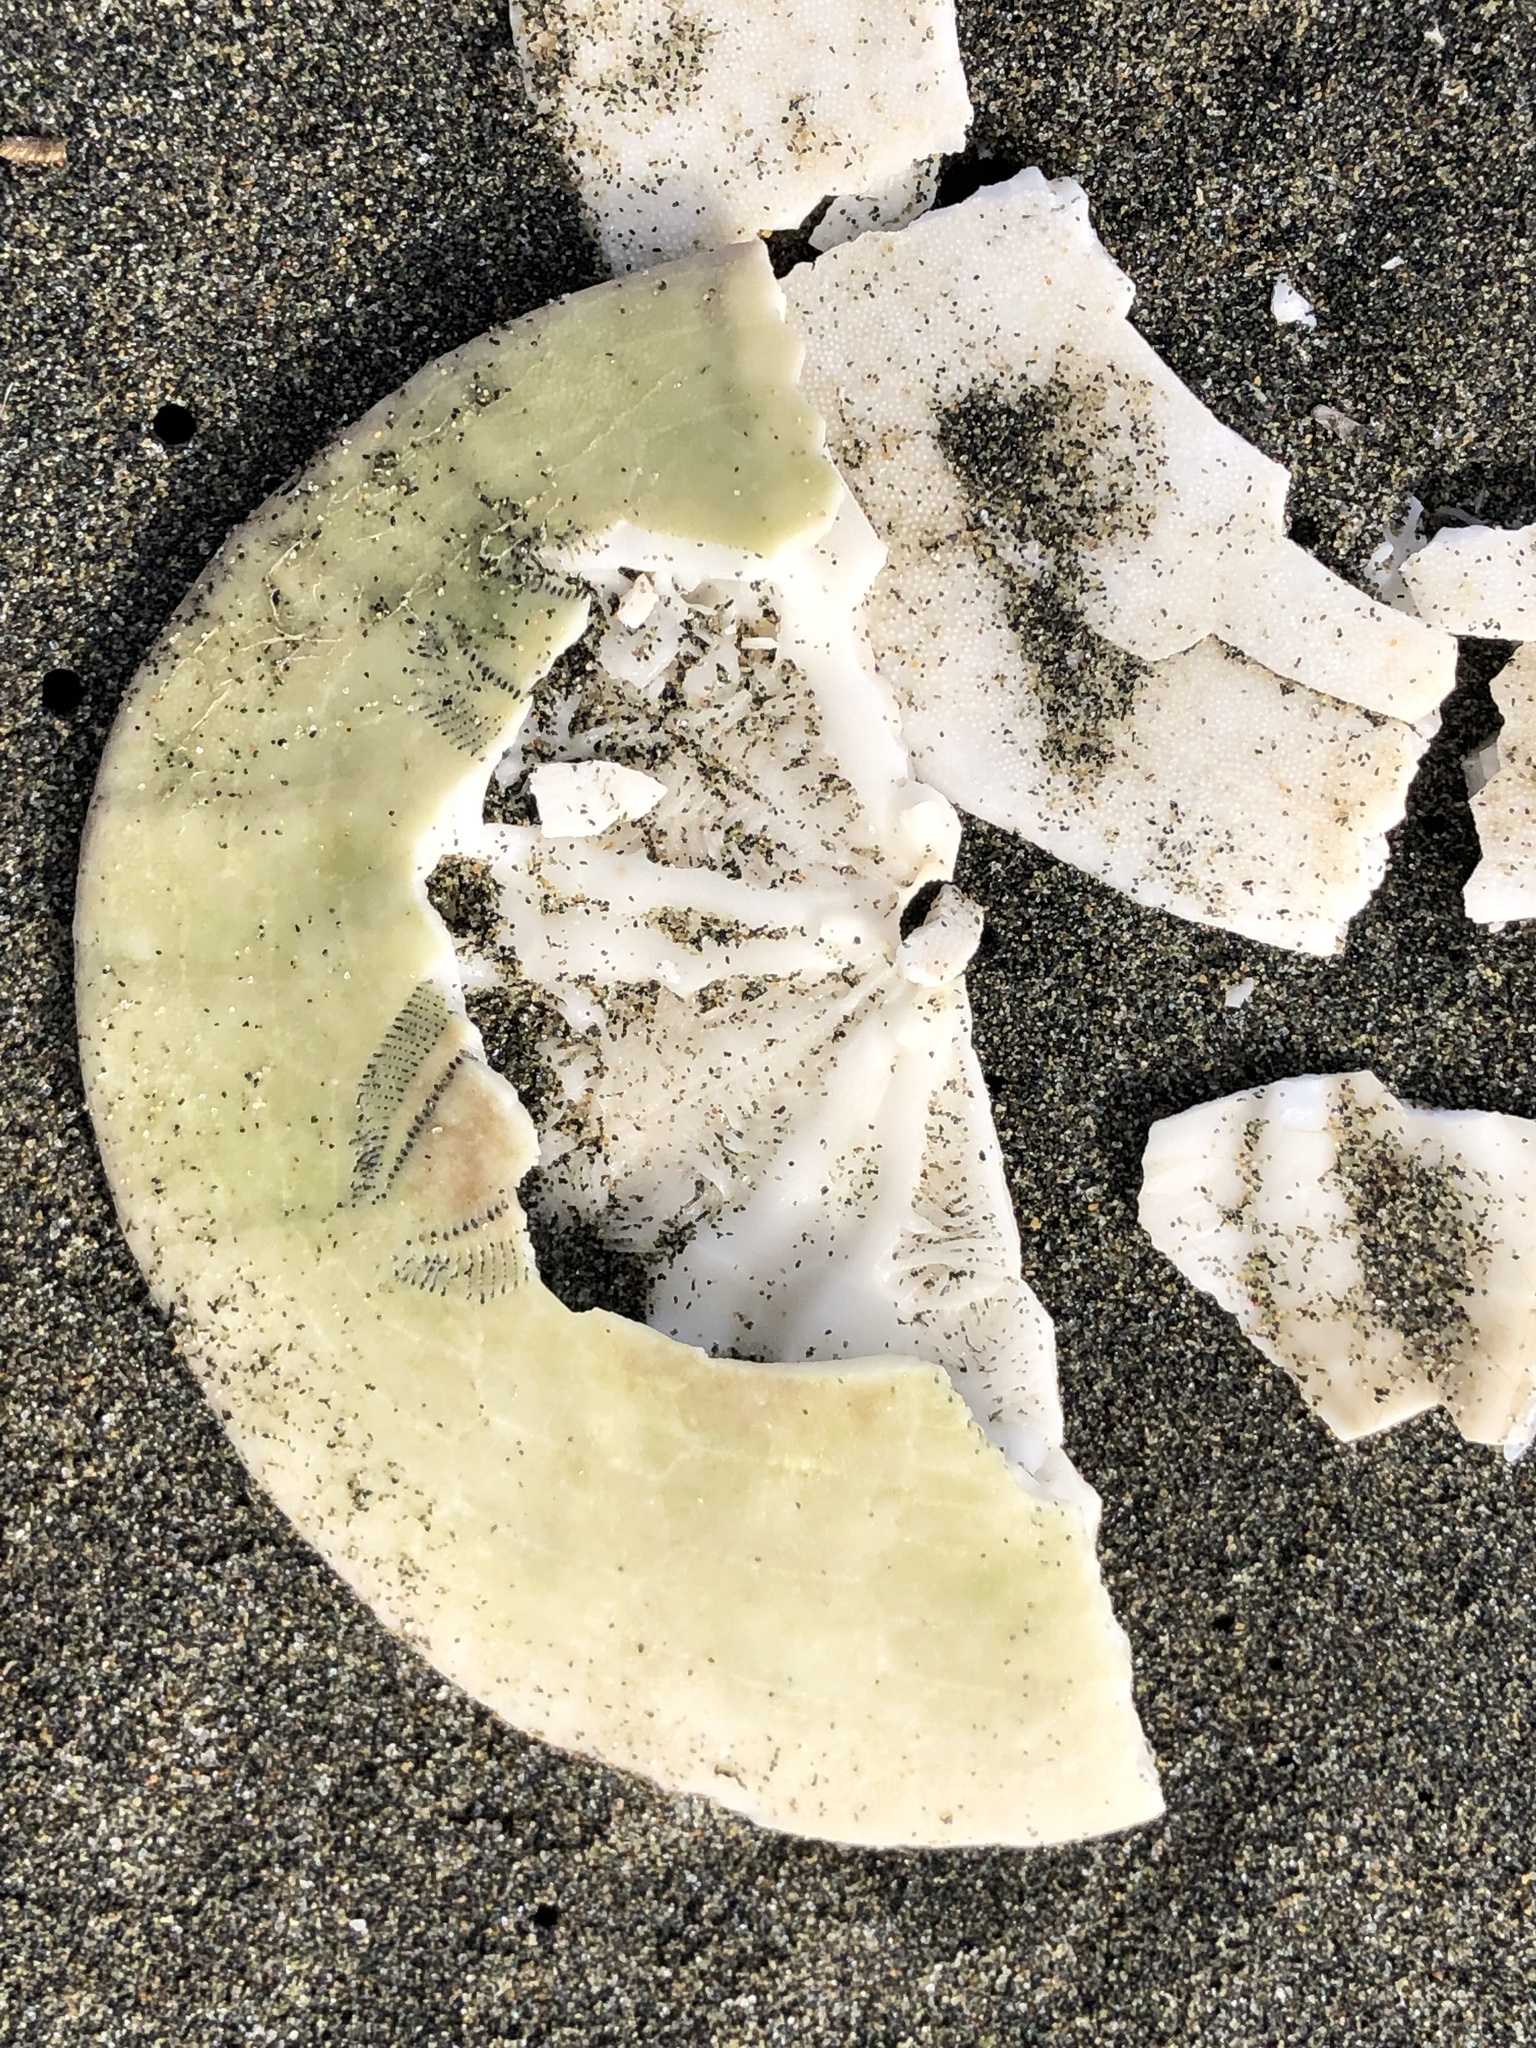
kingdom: Animalia
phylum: Echinodermata
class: Echinoidea
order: Echinolampadacea
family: Dendrasteridae
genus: Dendraster
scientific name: Dendraster excentricus
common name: Eccentric sand dollar sea urchin
